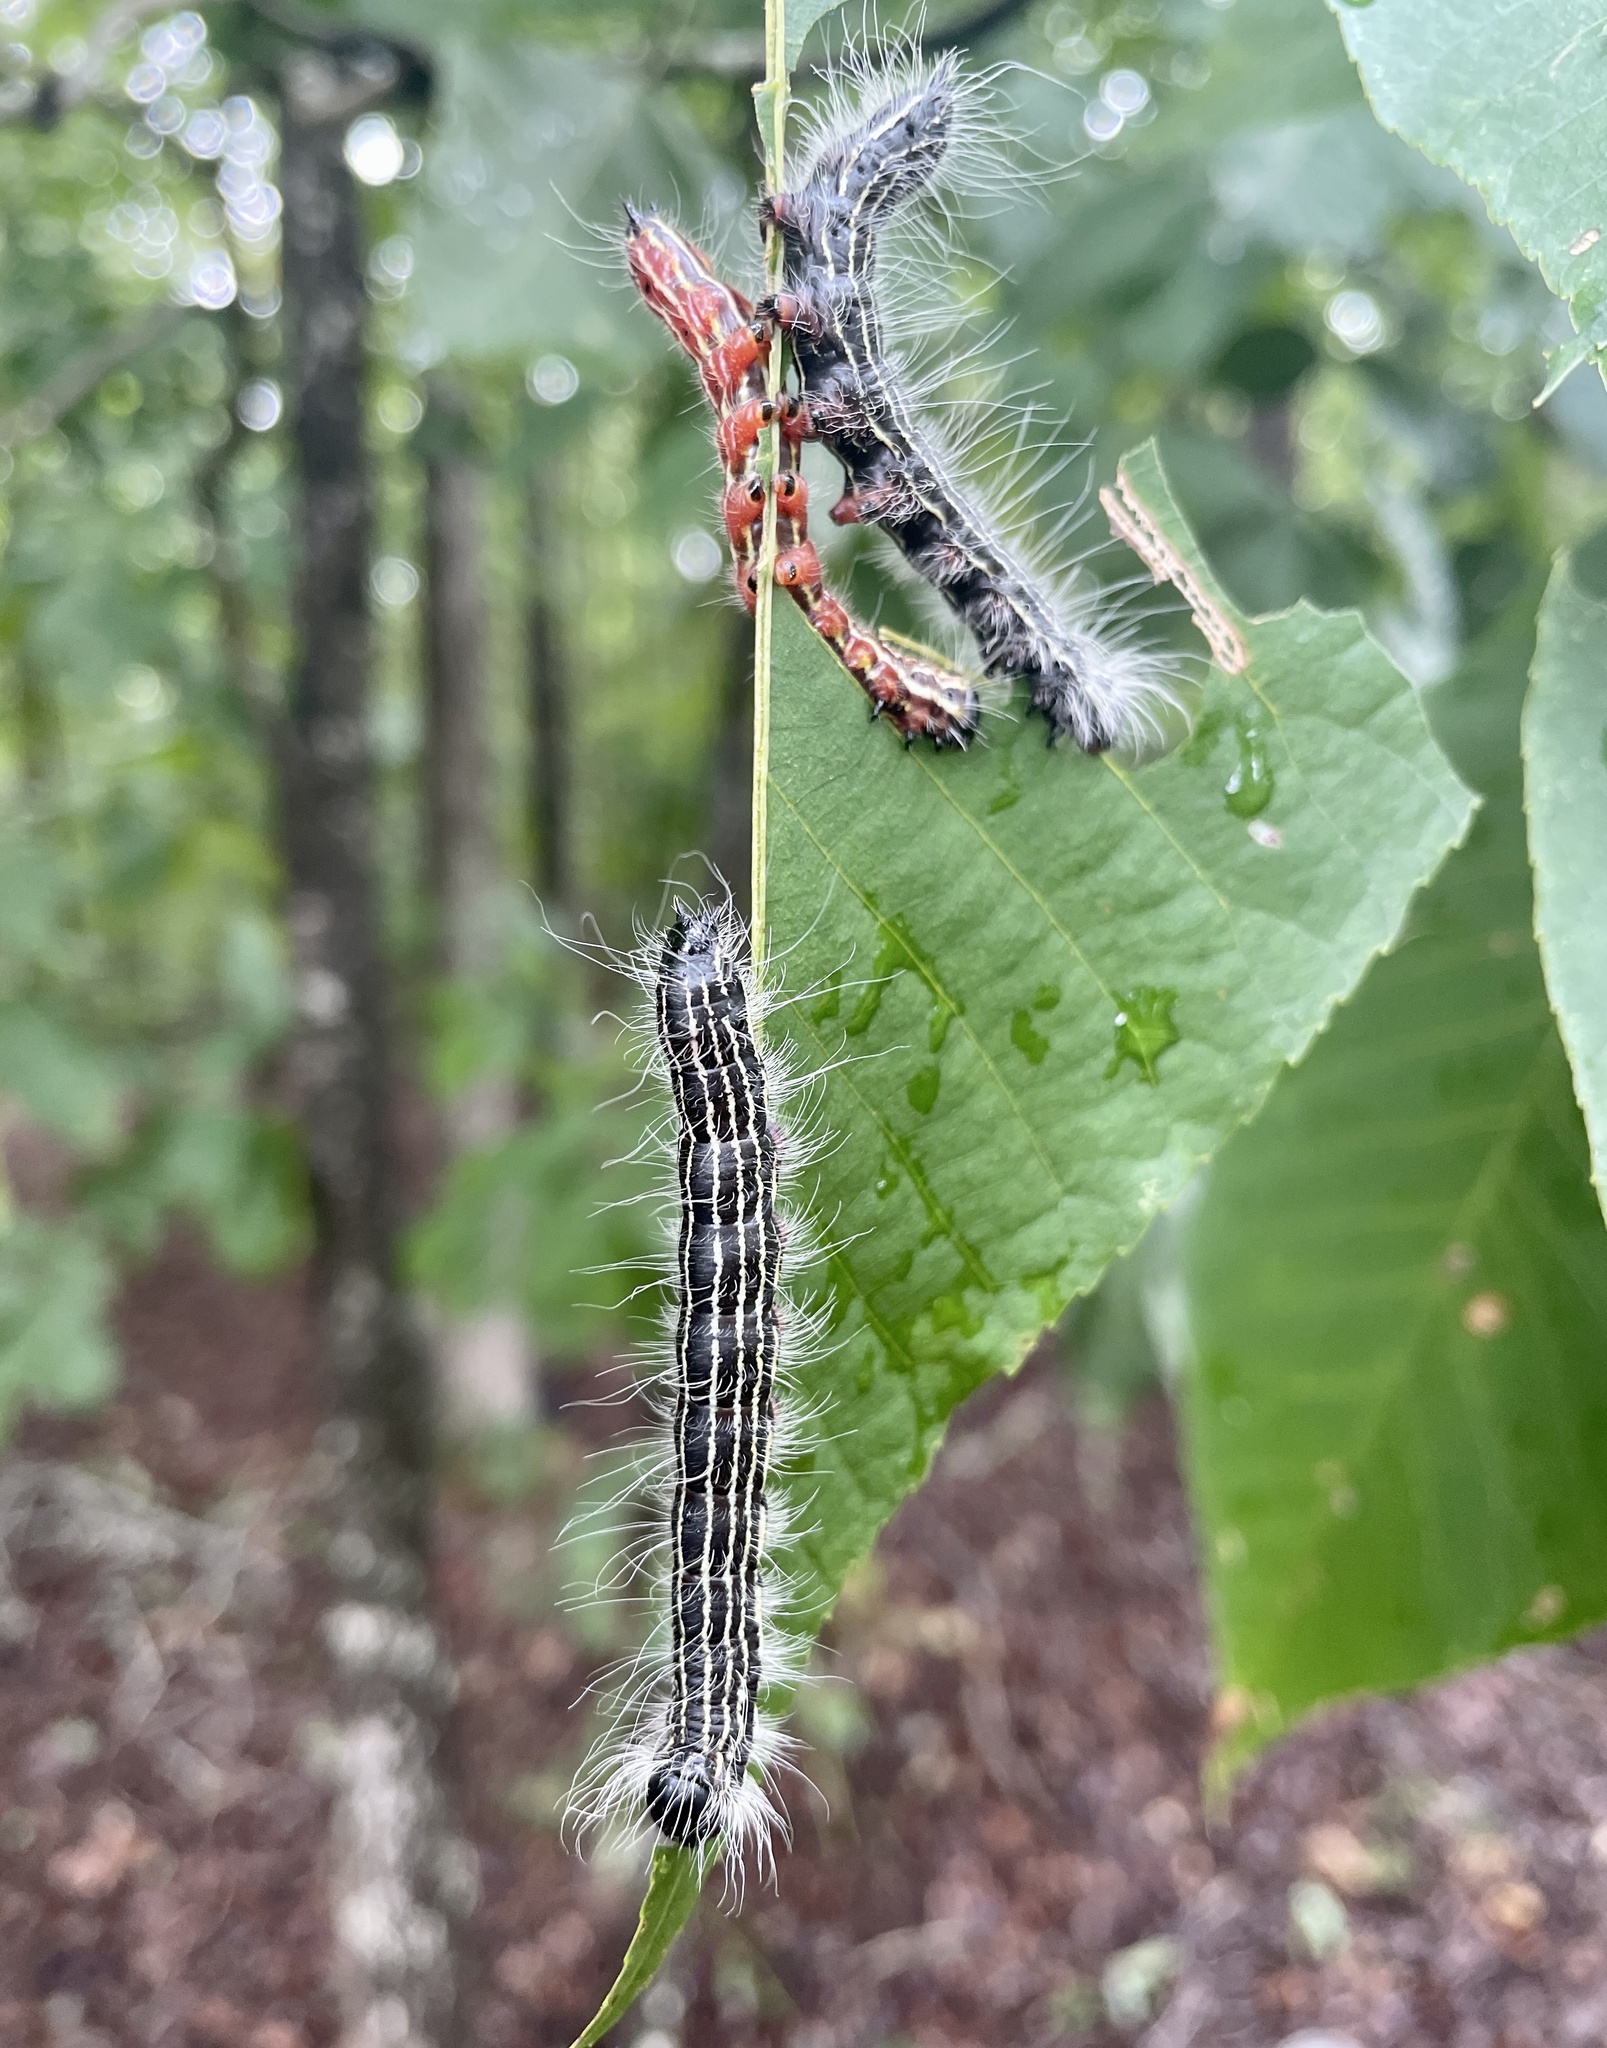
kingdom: Animalia
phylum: Arthropoda
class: Insecta
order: Lepidoptera
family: Notodontidae
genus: Datana
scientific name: Datana angusii
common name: Angus's datana
